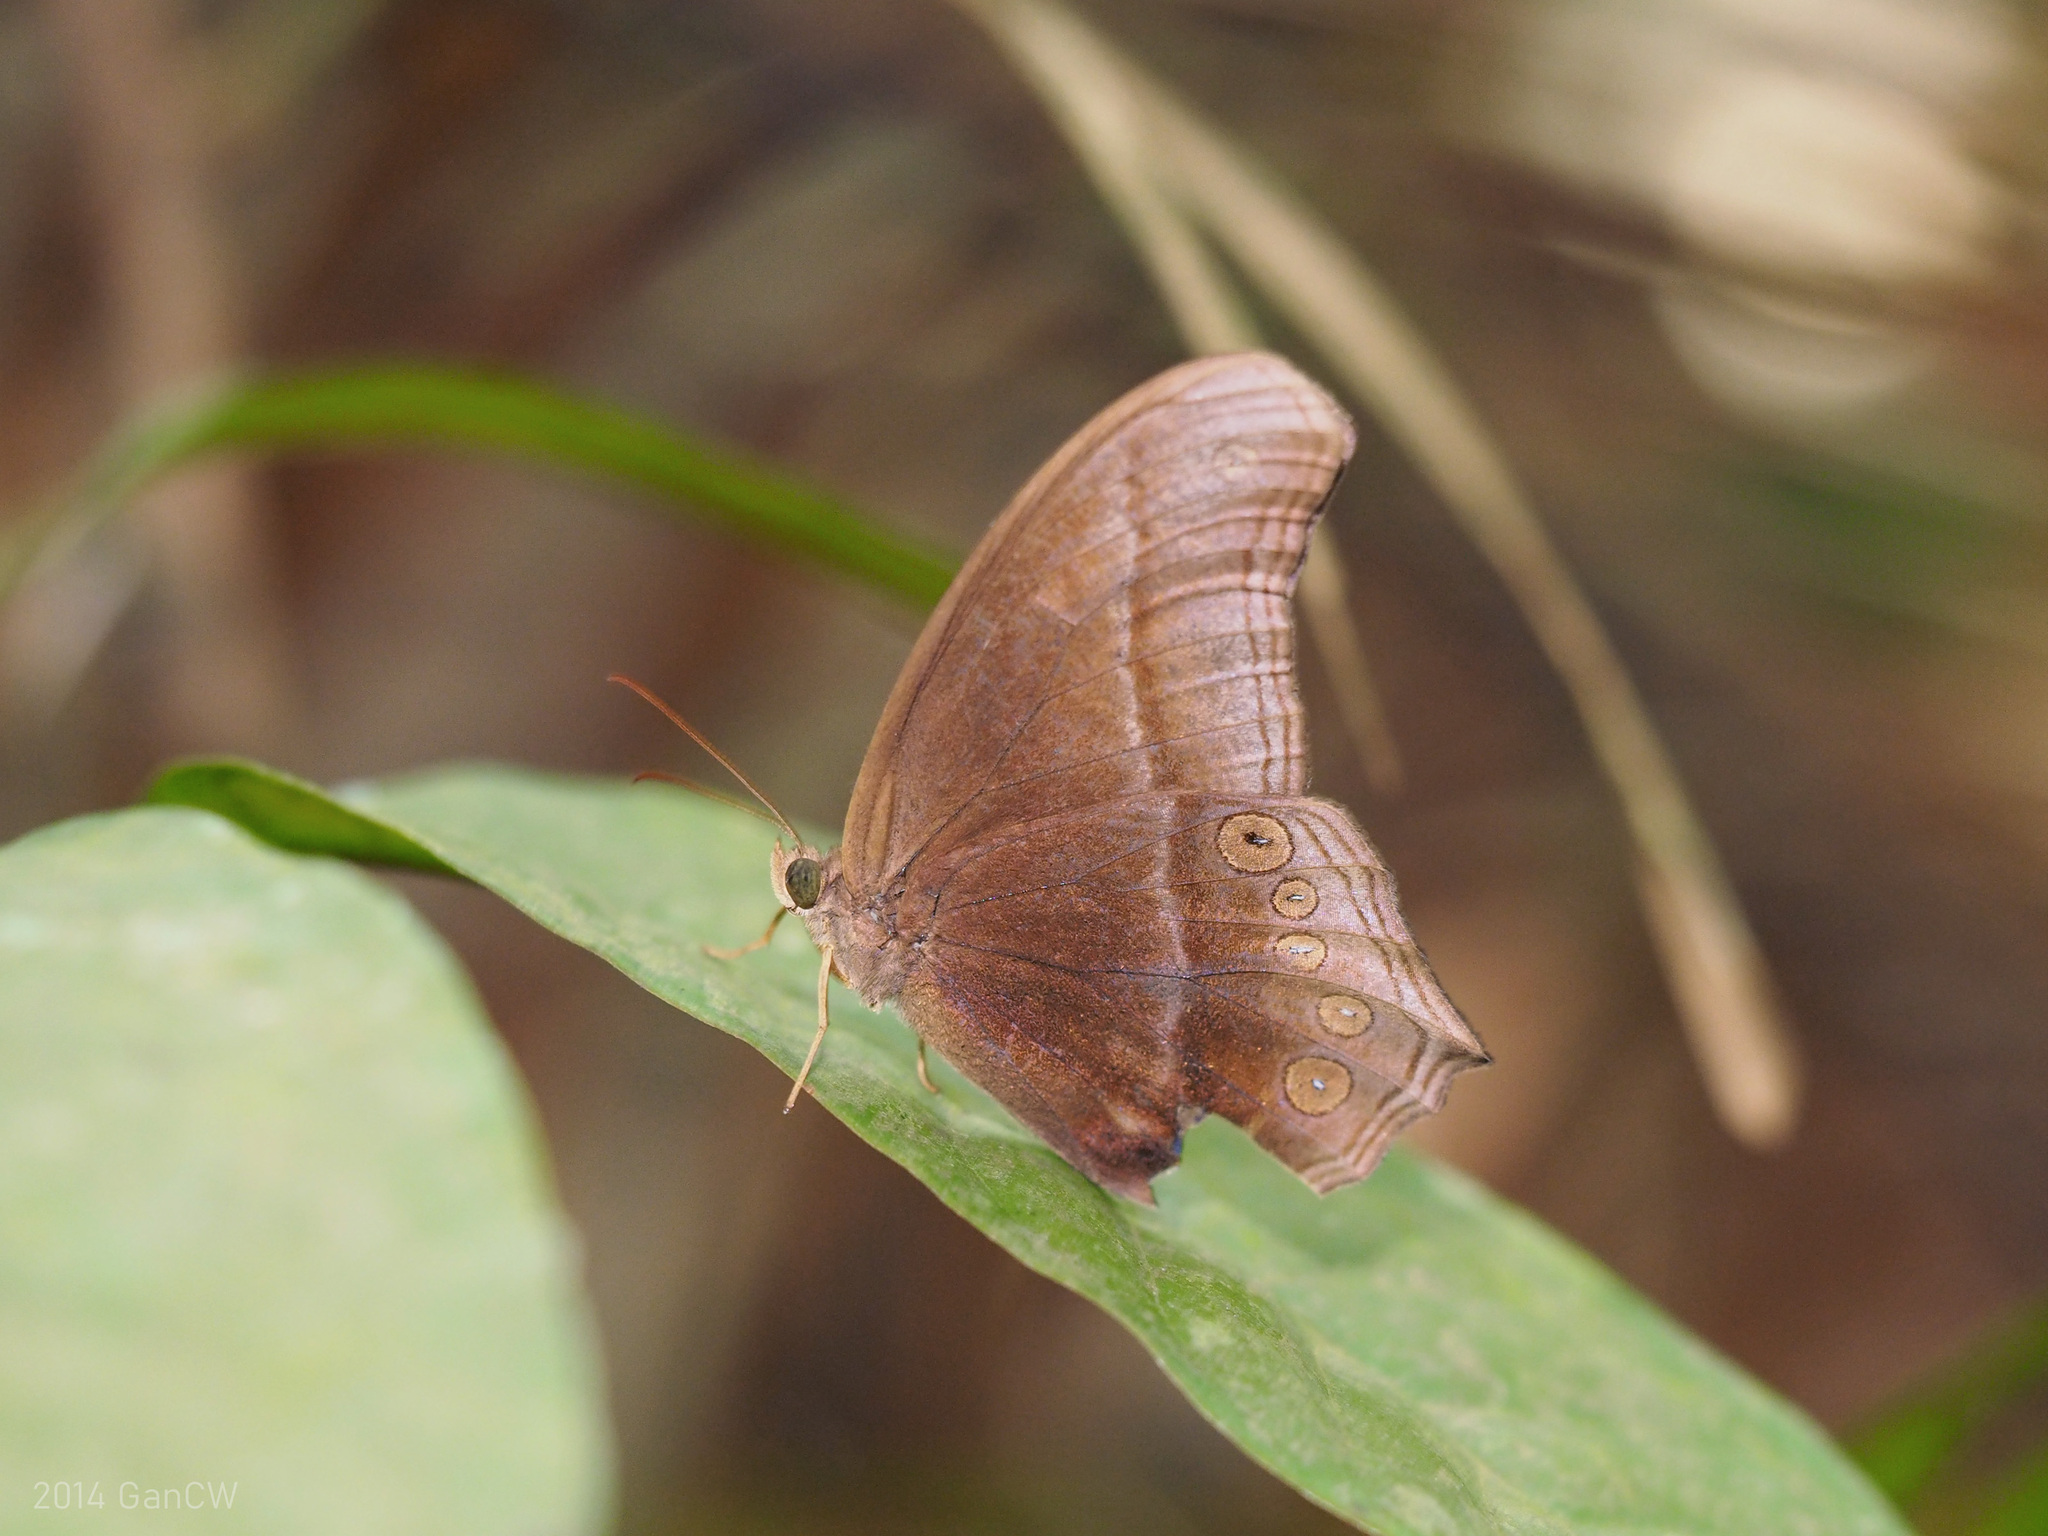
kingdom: Animalia
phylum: Arthropoda
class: Insecta
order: Lepidoptera
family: Nymphalidae
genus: Coelites
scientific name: Coelites epiminthia
